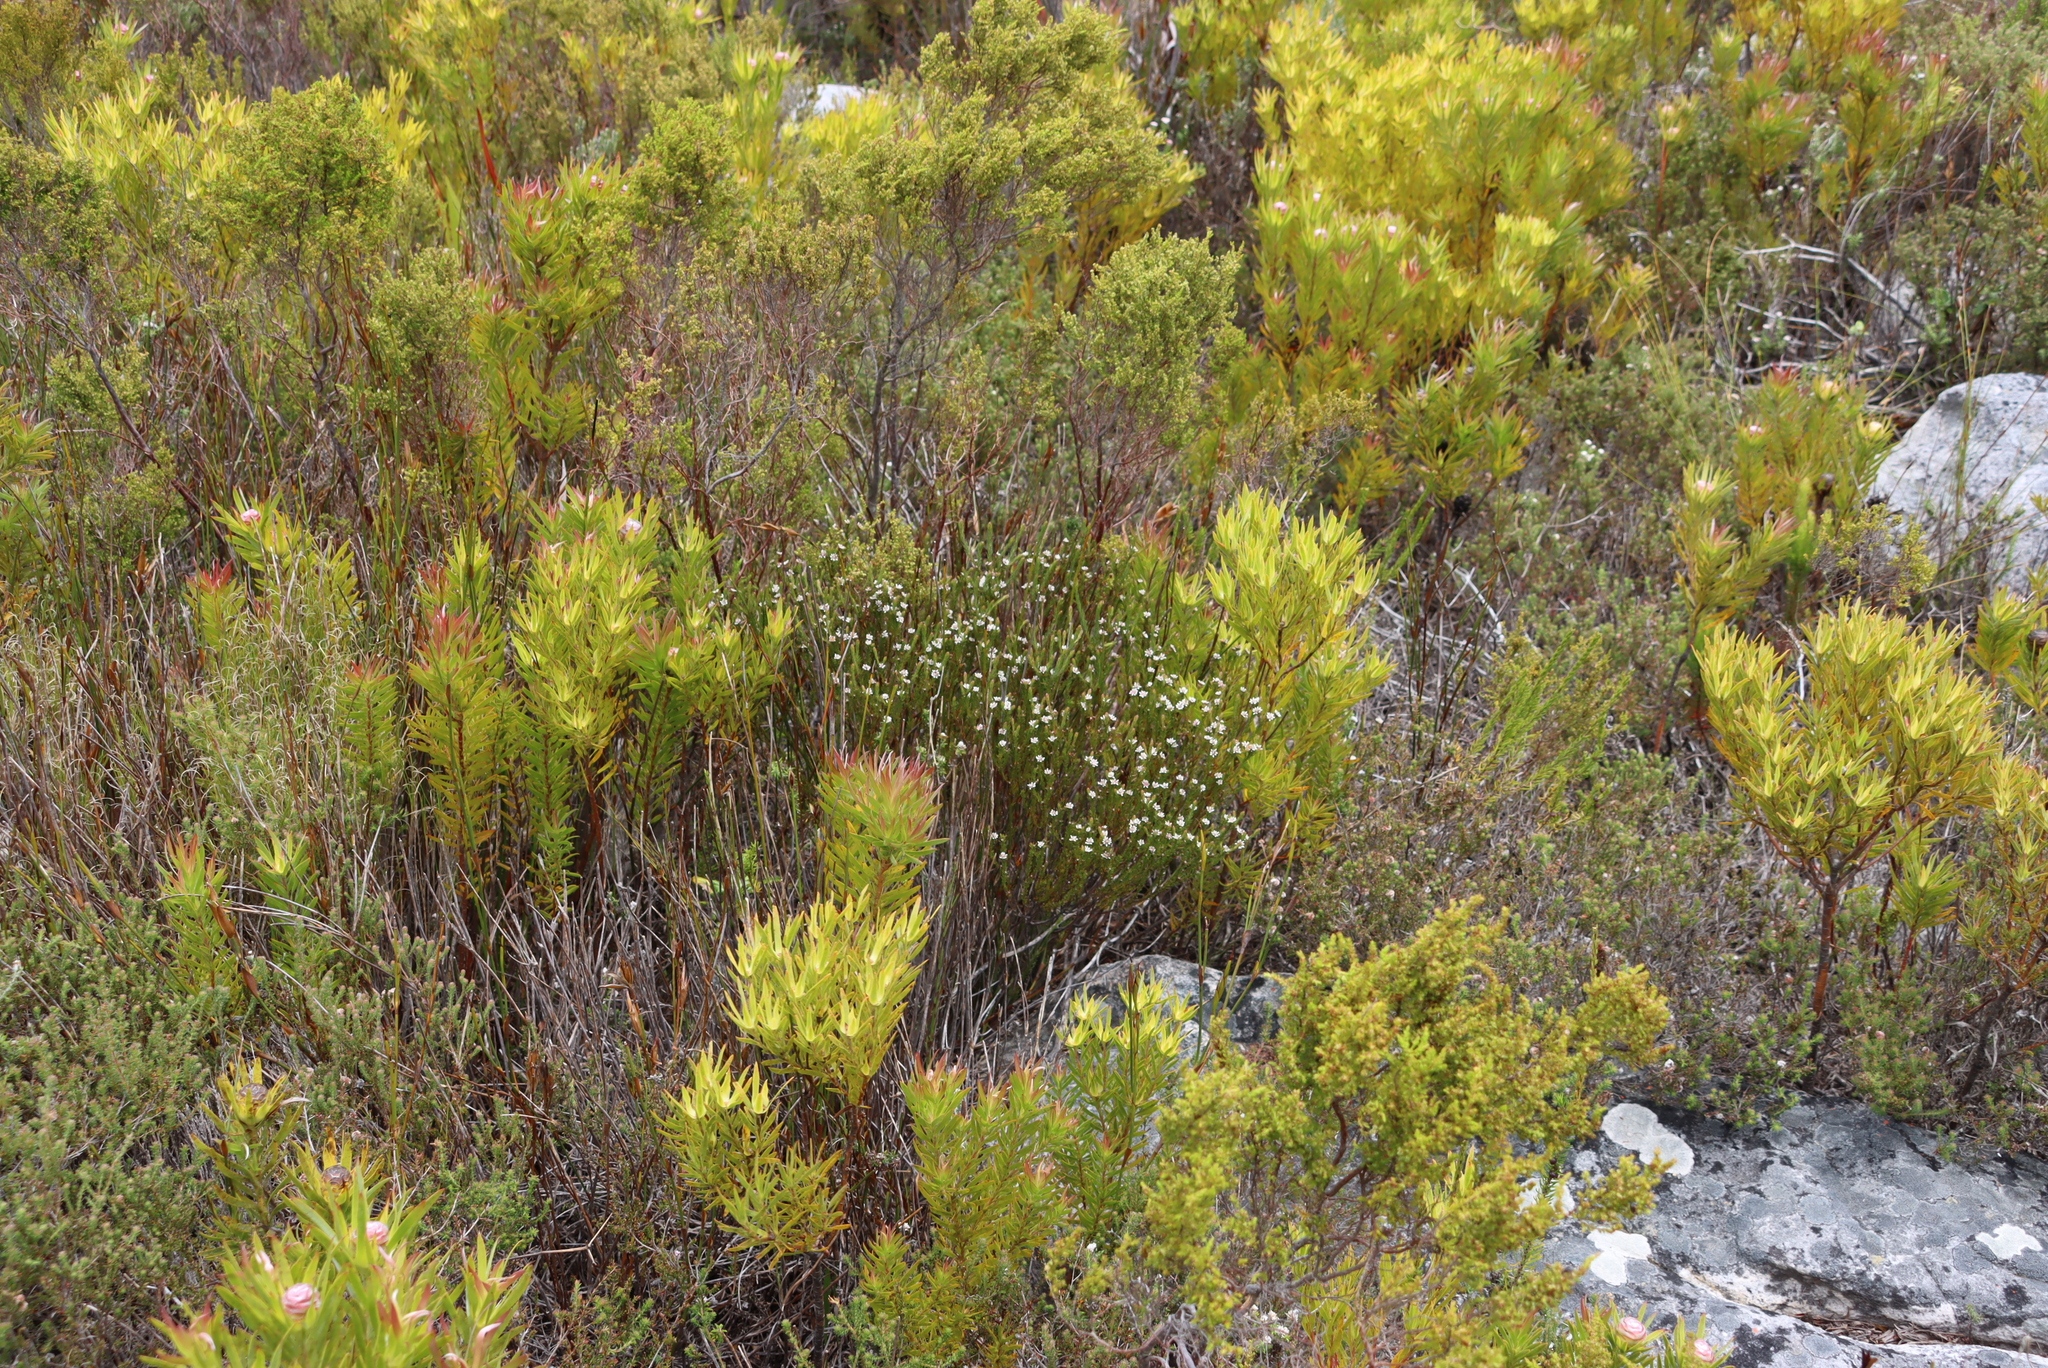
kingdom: Plantae
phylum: Tracheophyta
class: Magnoliopsida
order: Bruniales
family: Bruniaceae
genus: Staavia
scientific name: Staavia radiata
